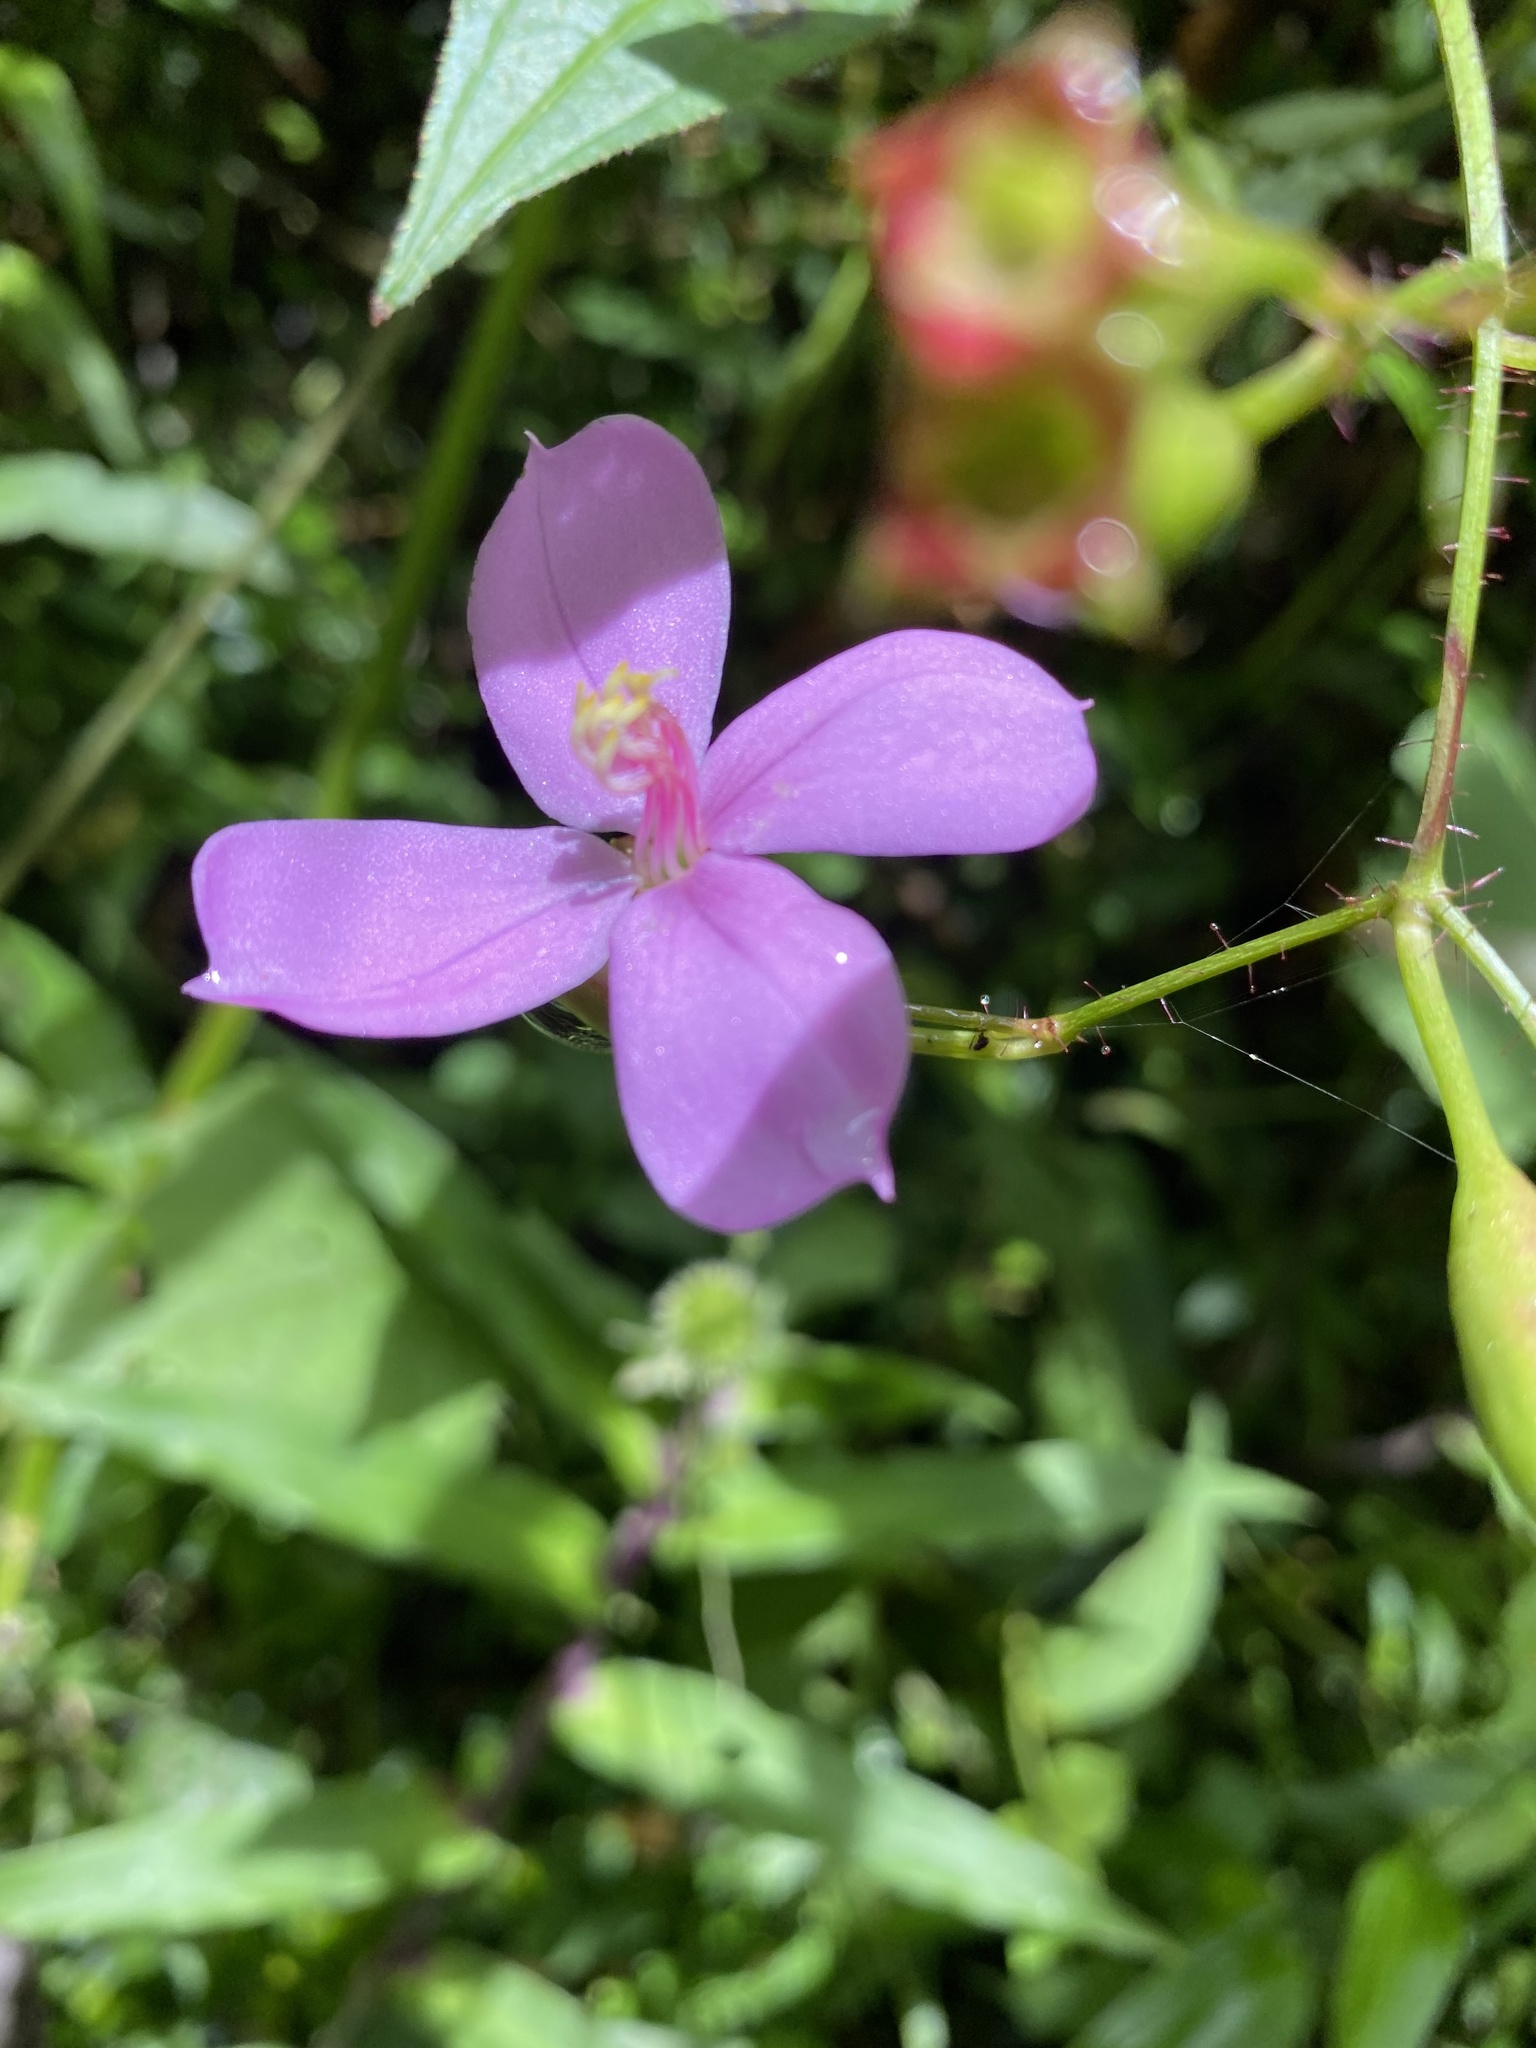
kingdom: Plantae
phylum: Tracheophyta
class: Magnoliopsida
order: Myrtales
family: Melastomataceae
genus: Arthrostemma
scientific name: Arthrostemma ciliatum
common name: Everblooming eavender
